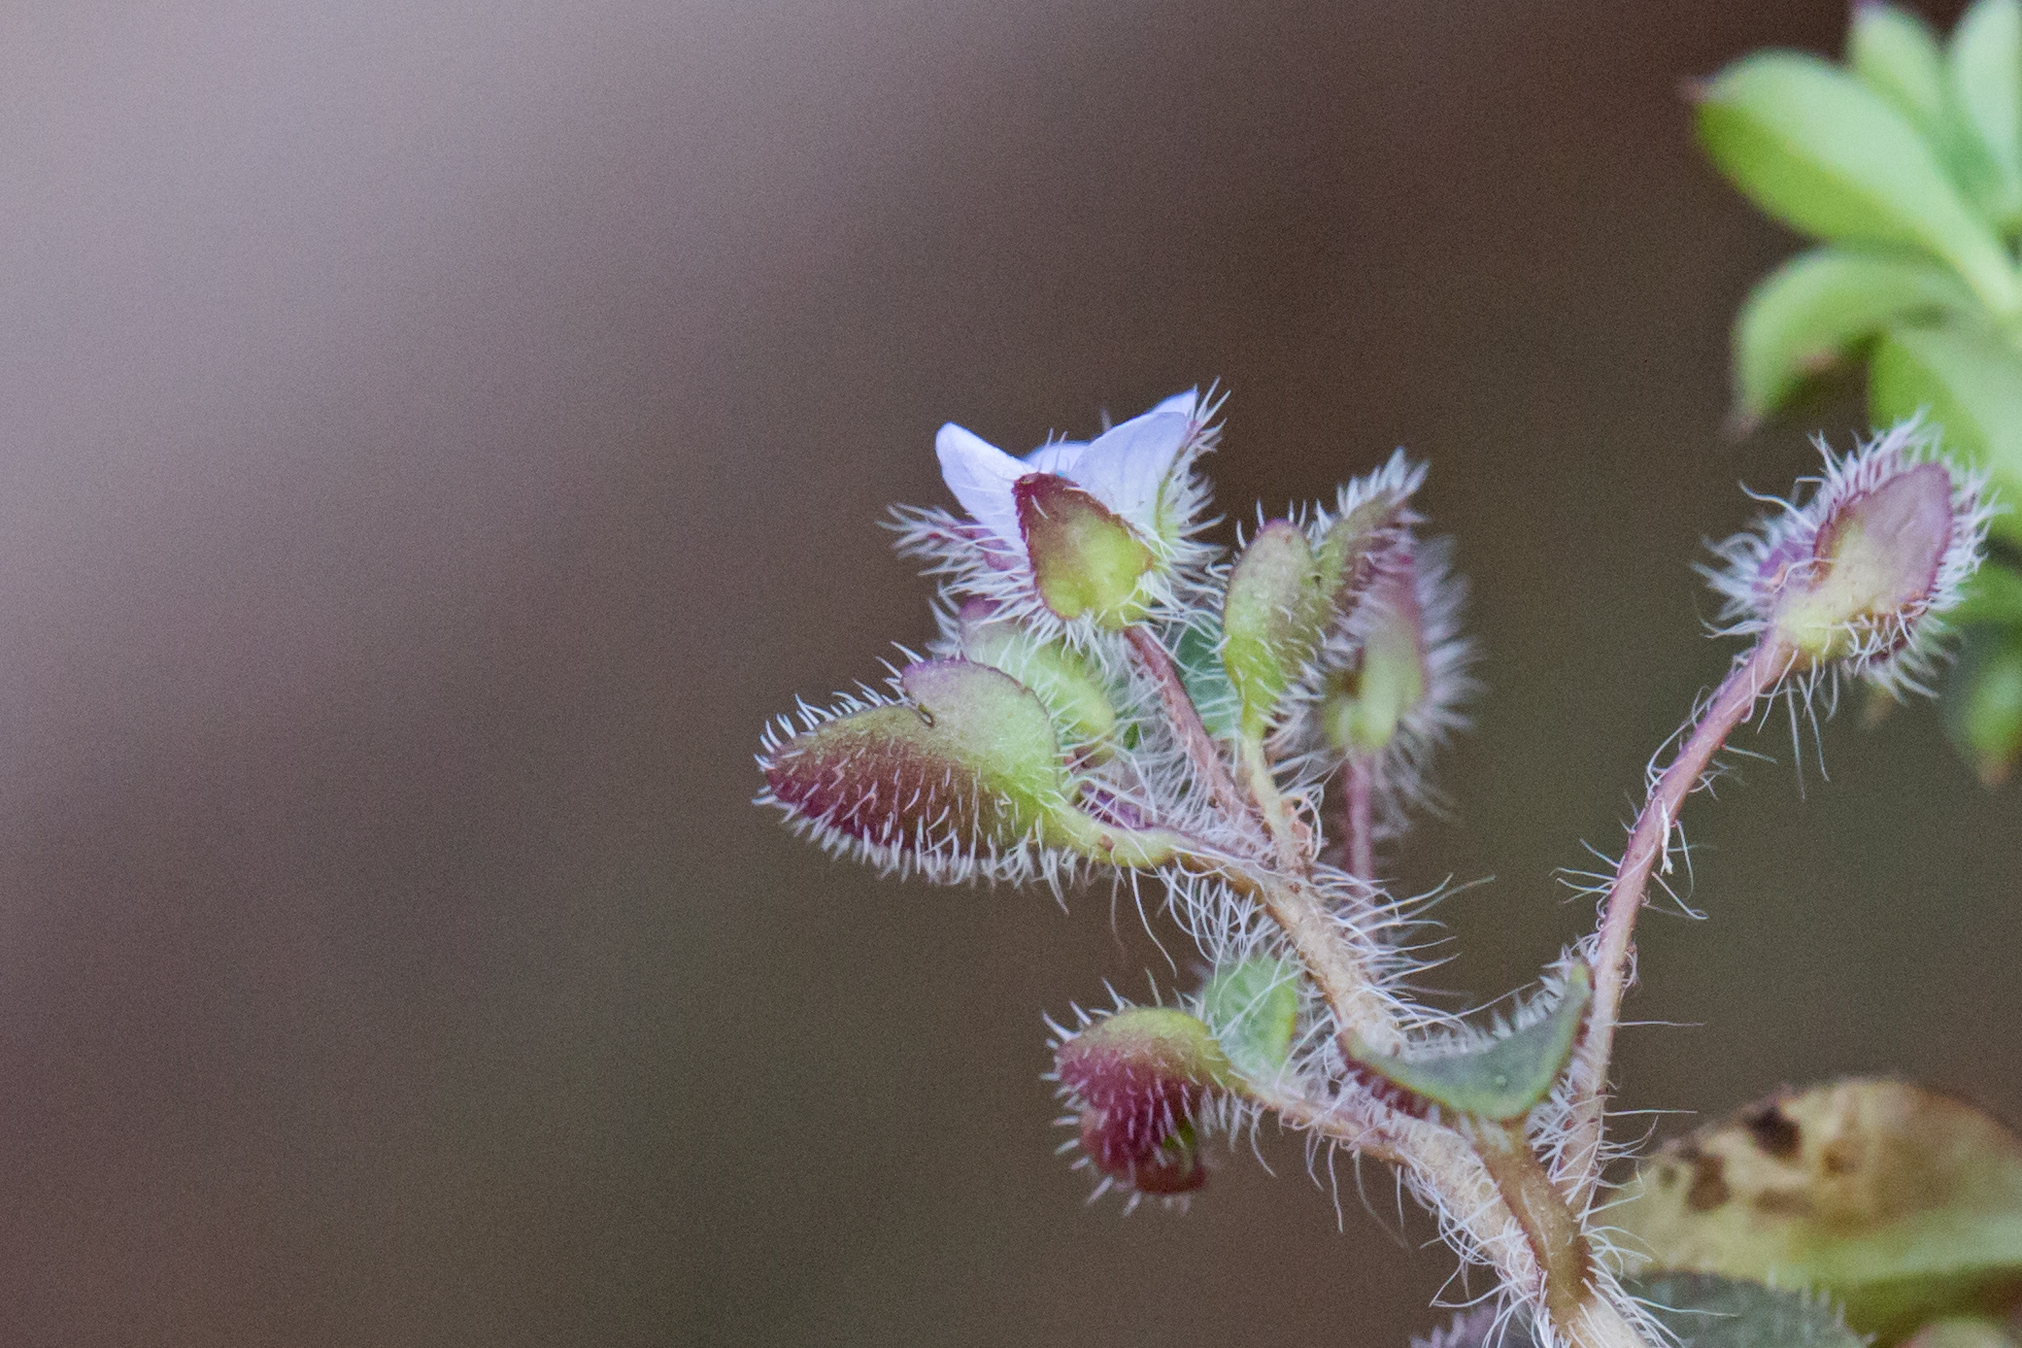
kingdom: Plantae
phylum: Tracheophyta
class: Magnoliopsida
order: Lamiales
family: Plantaginaceae
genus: Veronica
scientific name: Veronica sublobata
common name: False ivy-leaved speedwell
